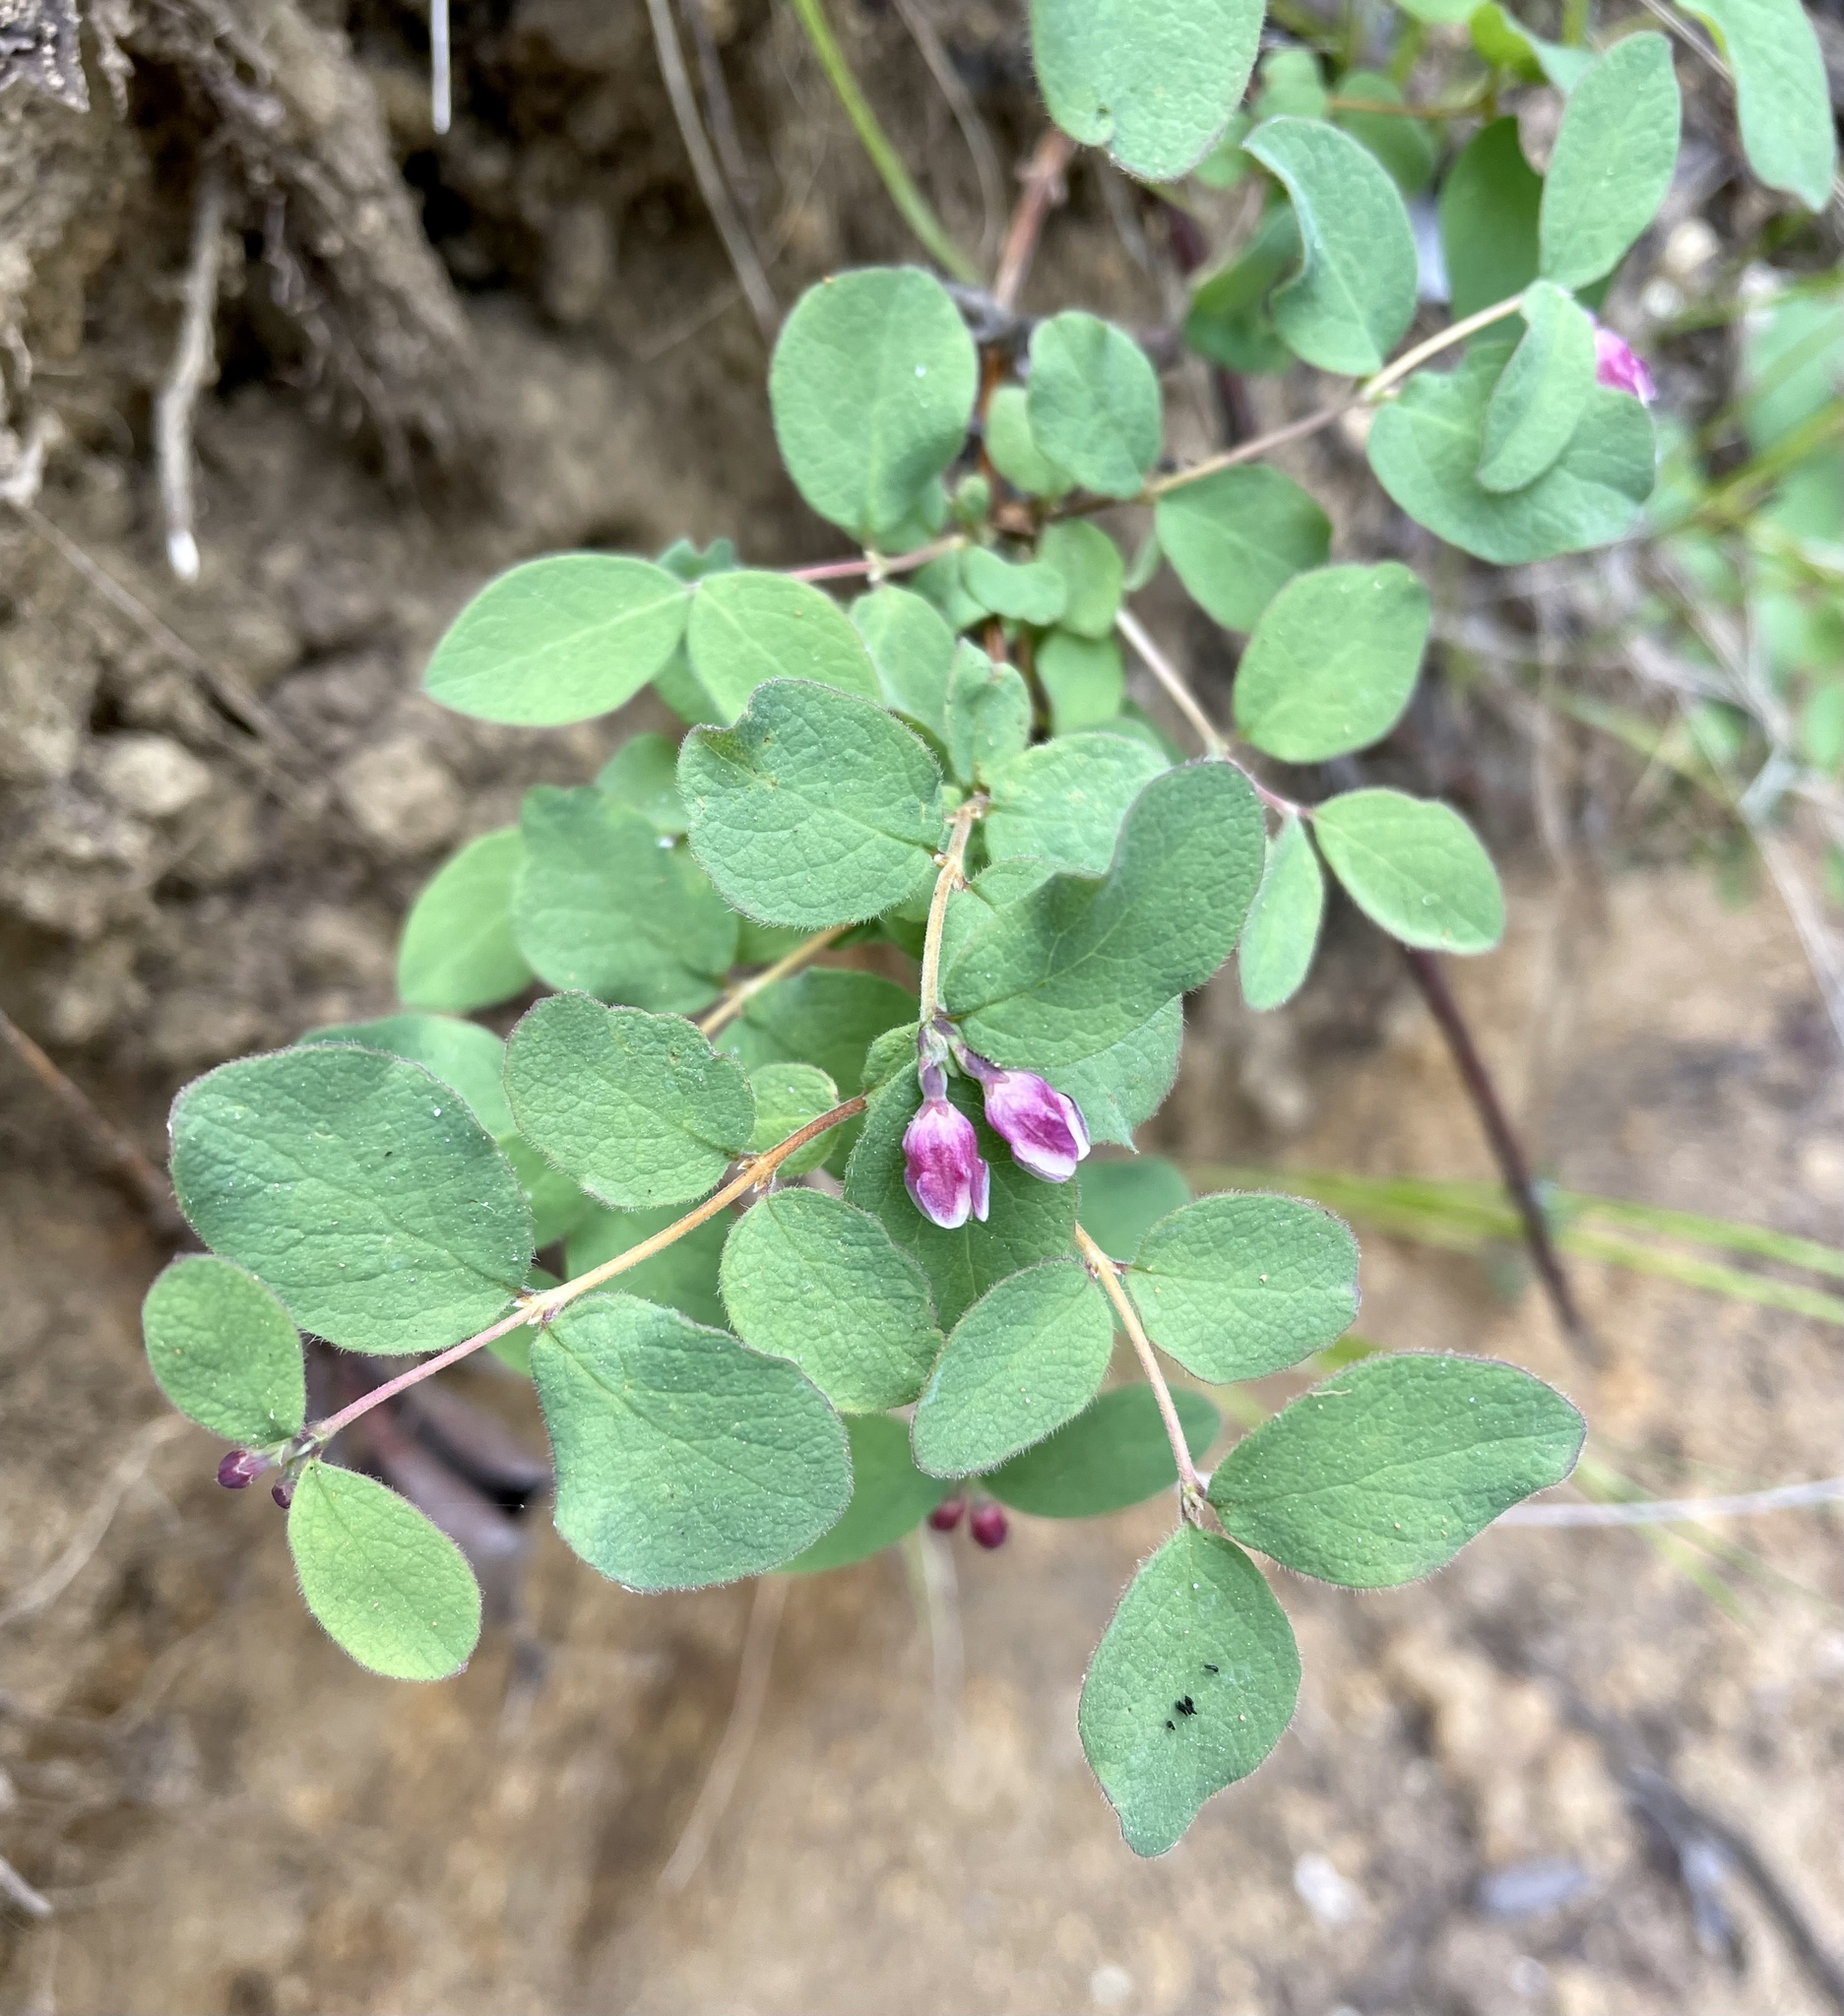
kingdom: Plantae
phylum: Tracheophyta
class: Magnoliopsida
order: Dipsacales
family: Caprifoliaceae
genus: Symphoricarpos
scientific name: Symphoricarpos mollis
